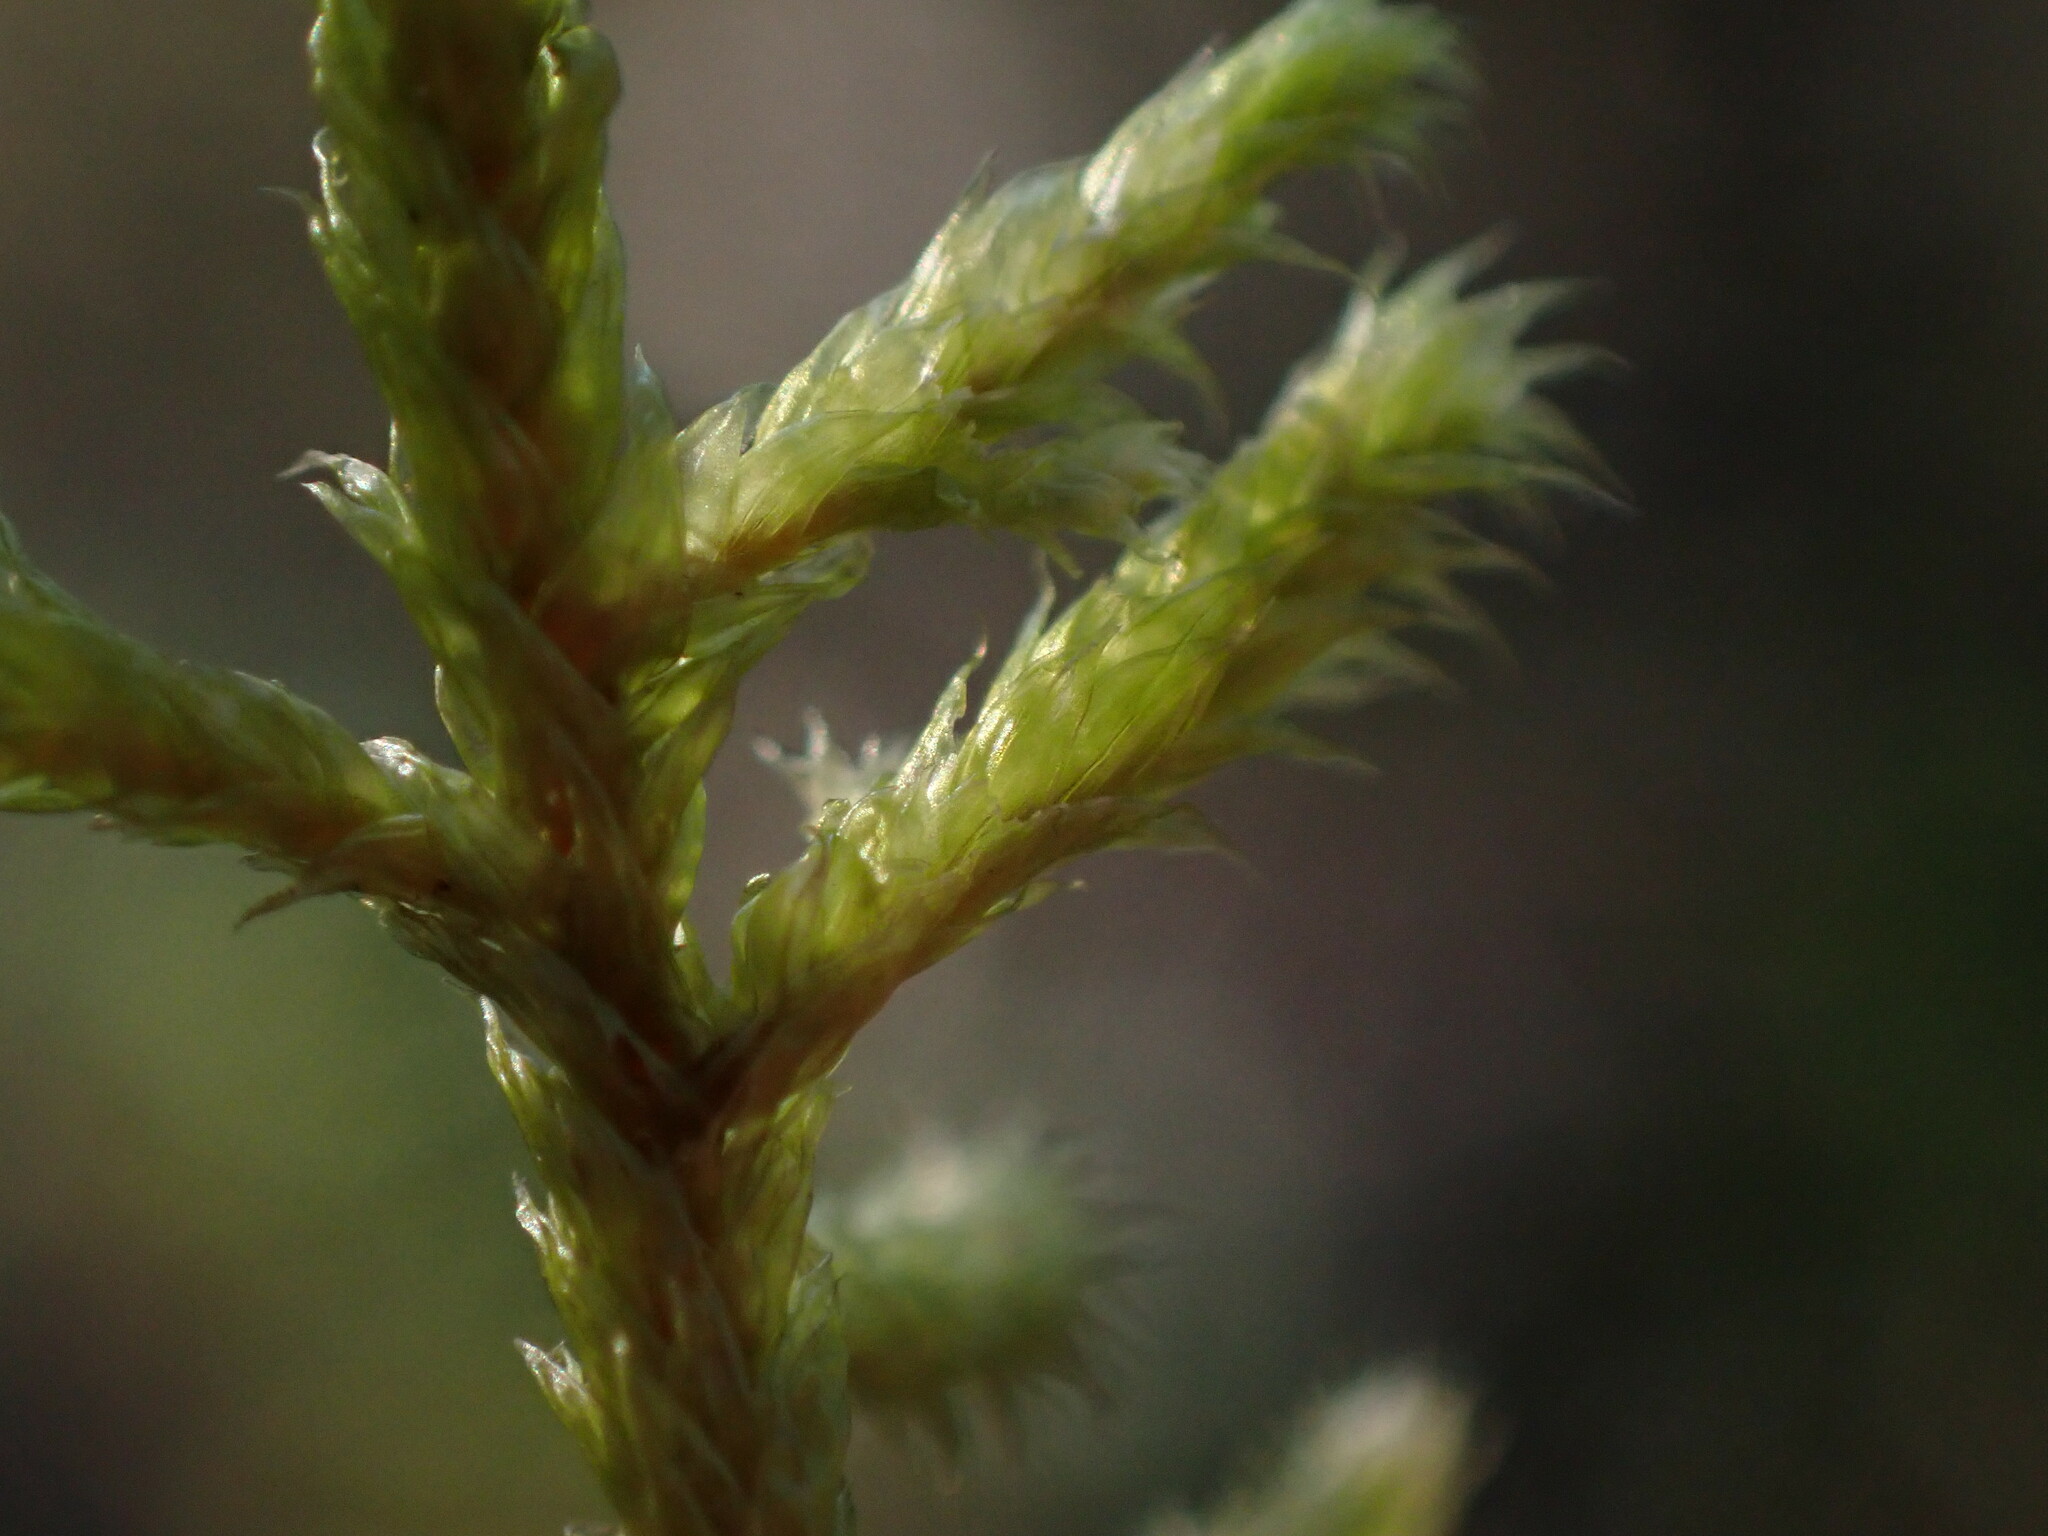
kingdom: Plantae
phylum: Bryophyta
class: Bryopsida
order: Hypnales
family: Antitrichiaceae
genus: Antitrichia
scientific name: Antitrichia curtipendula
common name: Pendulous wing-moss
